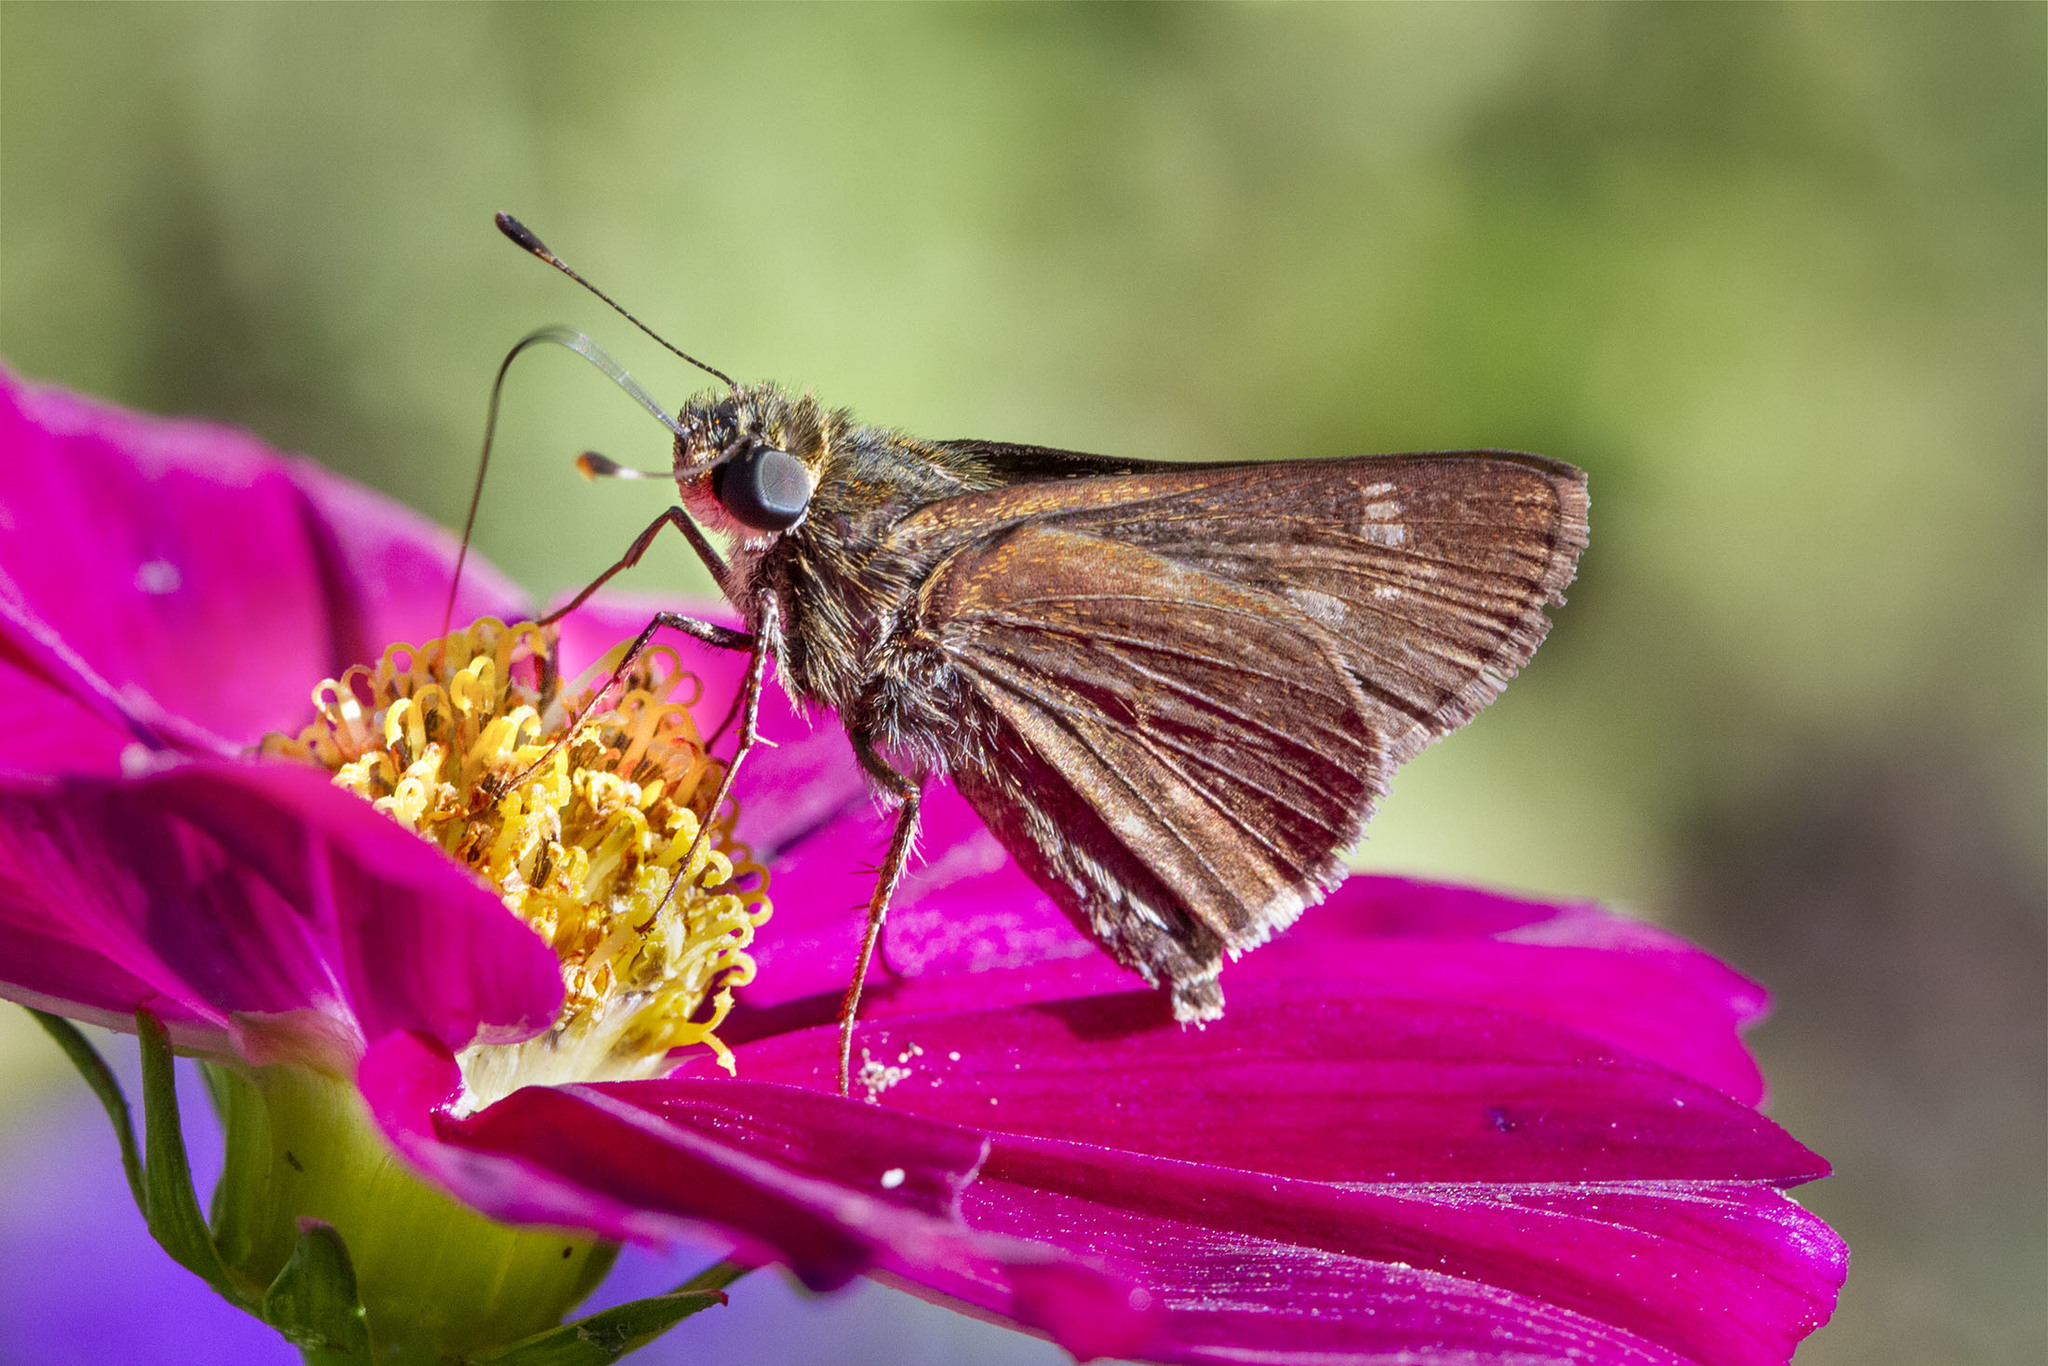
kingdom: Animalia
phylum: Arthropoda
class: Insecta
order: Lepidoptera
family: Hesperiidae
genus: Vernia
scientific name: Vernia verna
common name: Little glassywing
